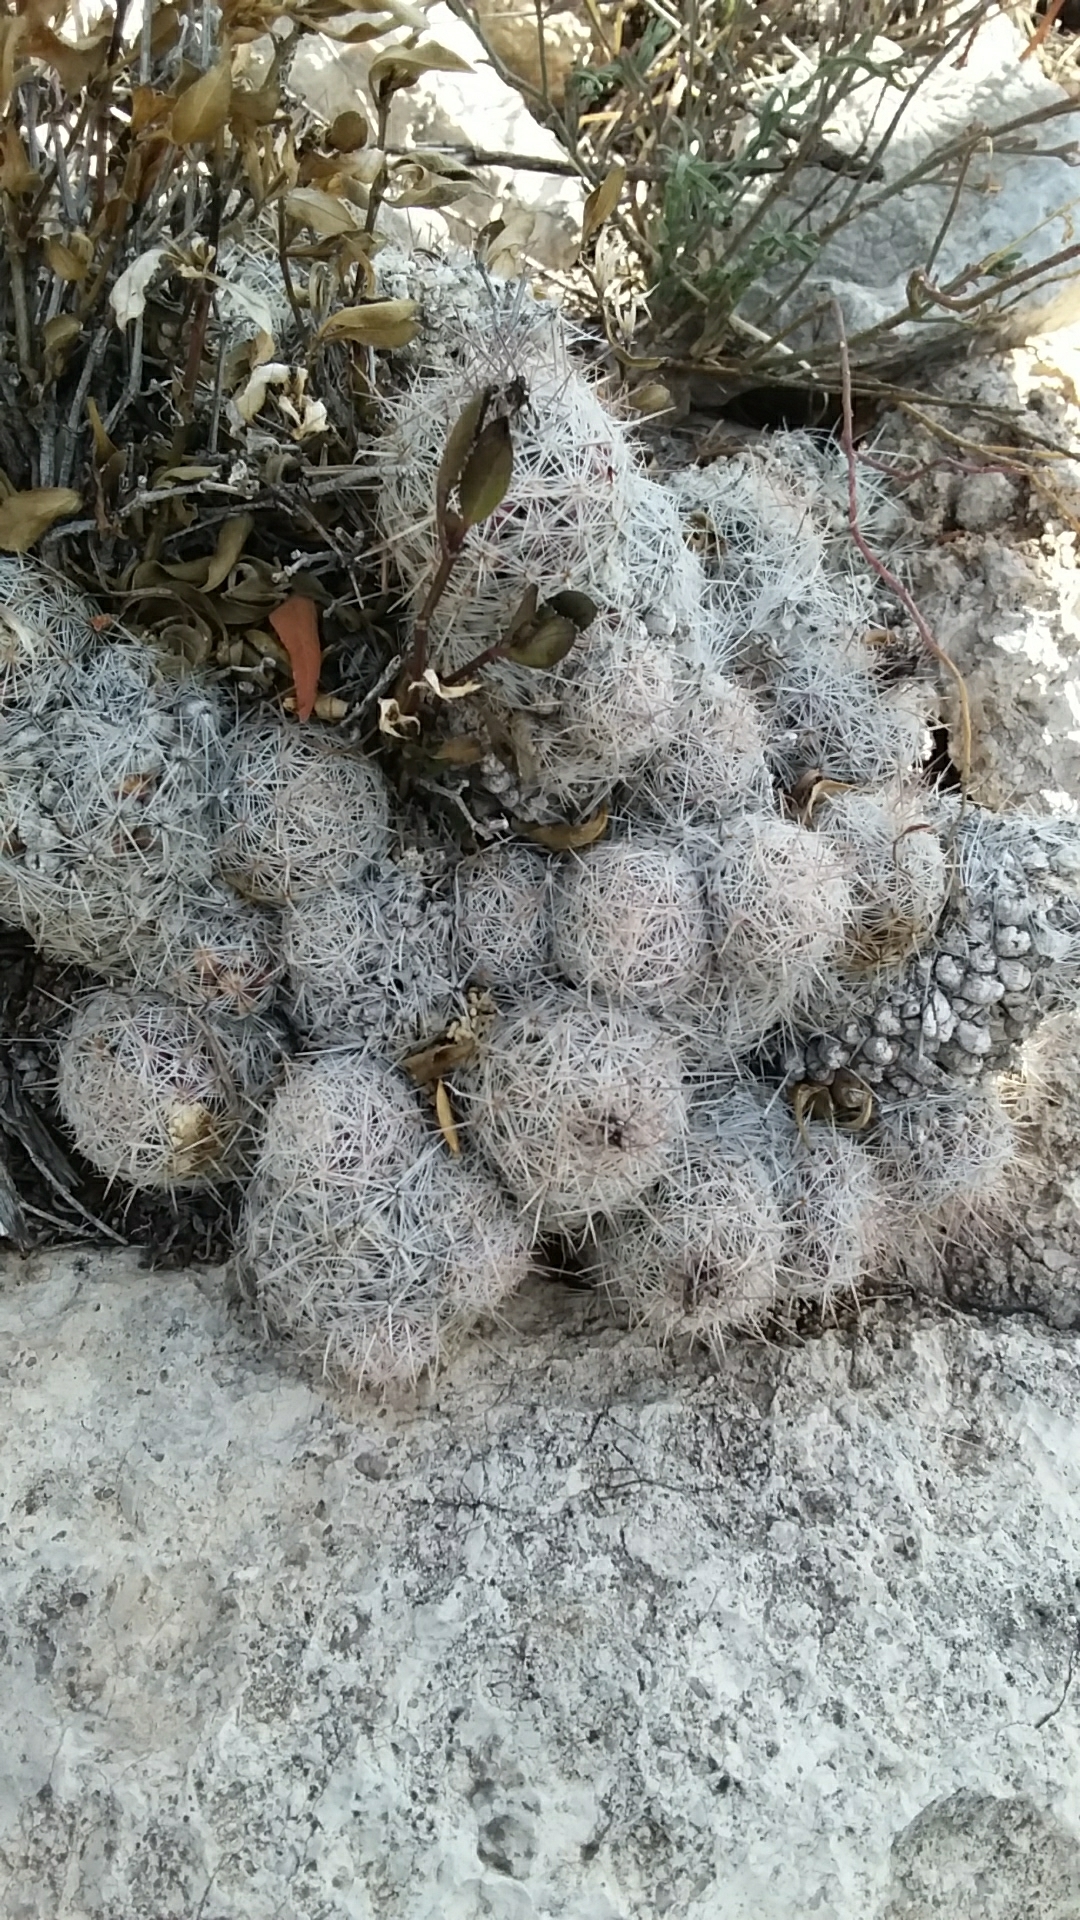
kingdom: Plantae
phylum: Tracheophyta
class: Magnoliopsida
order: Caryophyllales
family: Cactaceae
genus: Pelecyphora
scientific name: Pelecyphora tuberculosa
